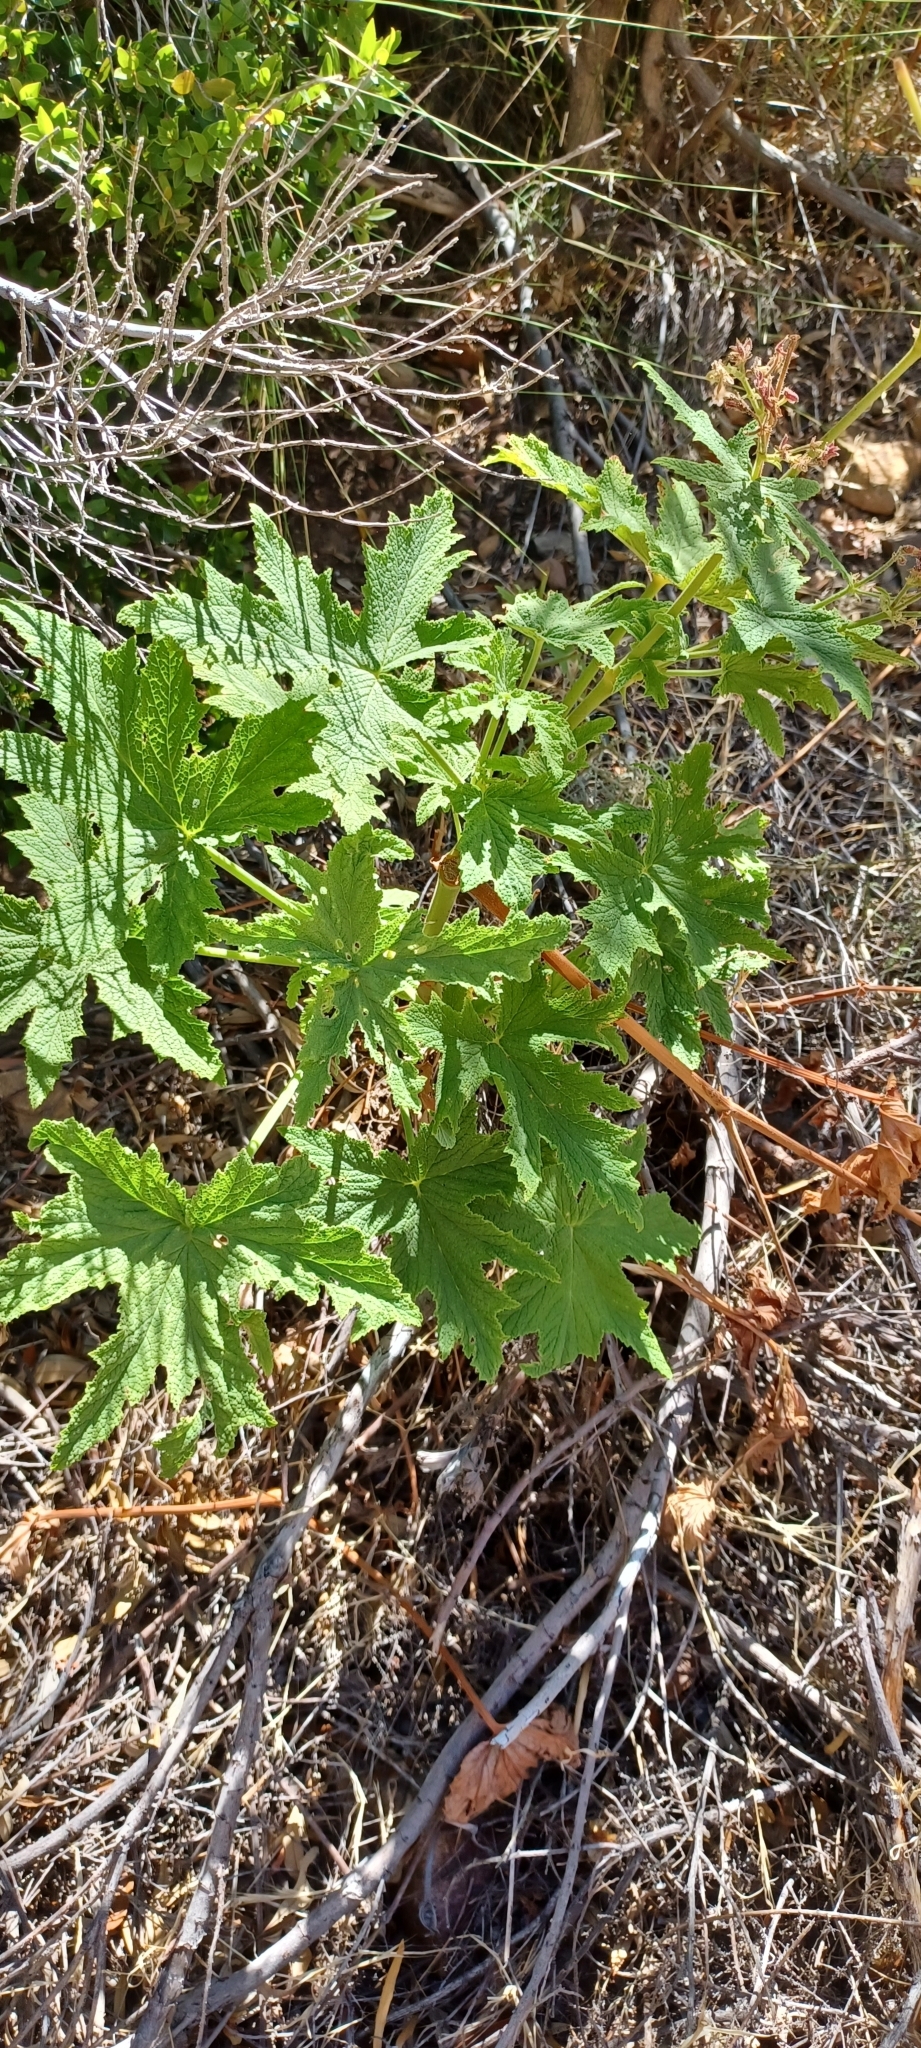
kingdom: Plantae
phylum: Tracheophyta
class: Magnoliopsida
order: Geraniales
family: Geraniaceae
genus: Pelargonium
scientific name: Pelargonium hispidum
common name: Hispid pelargonium
